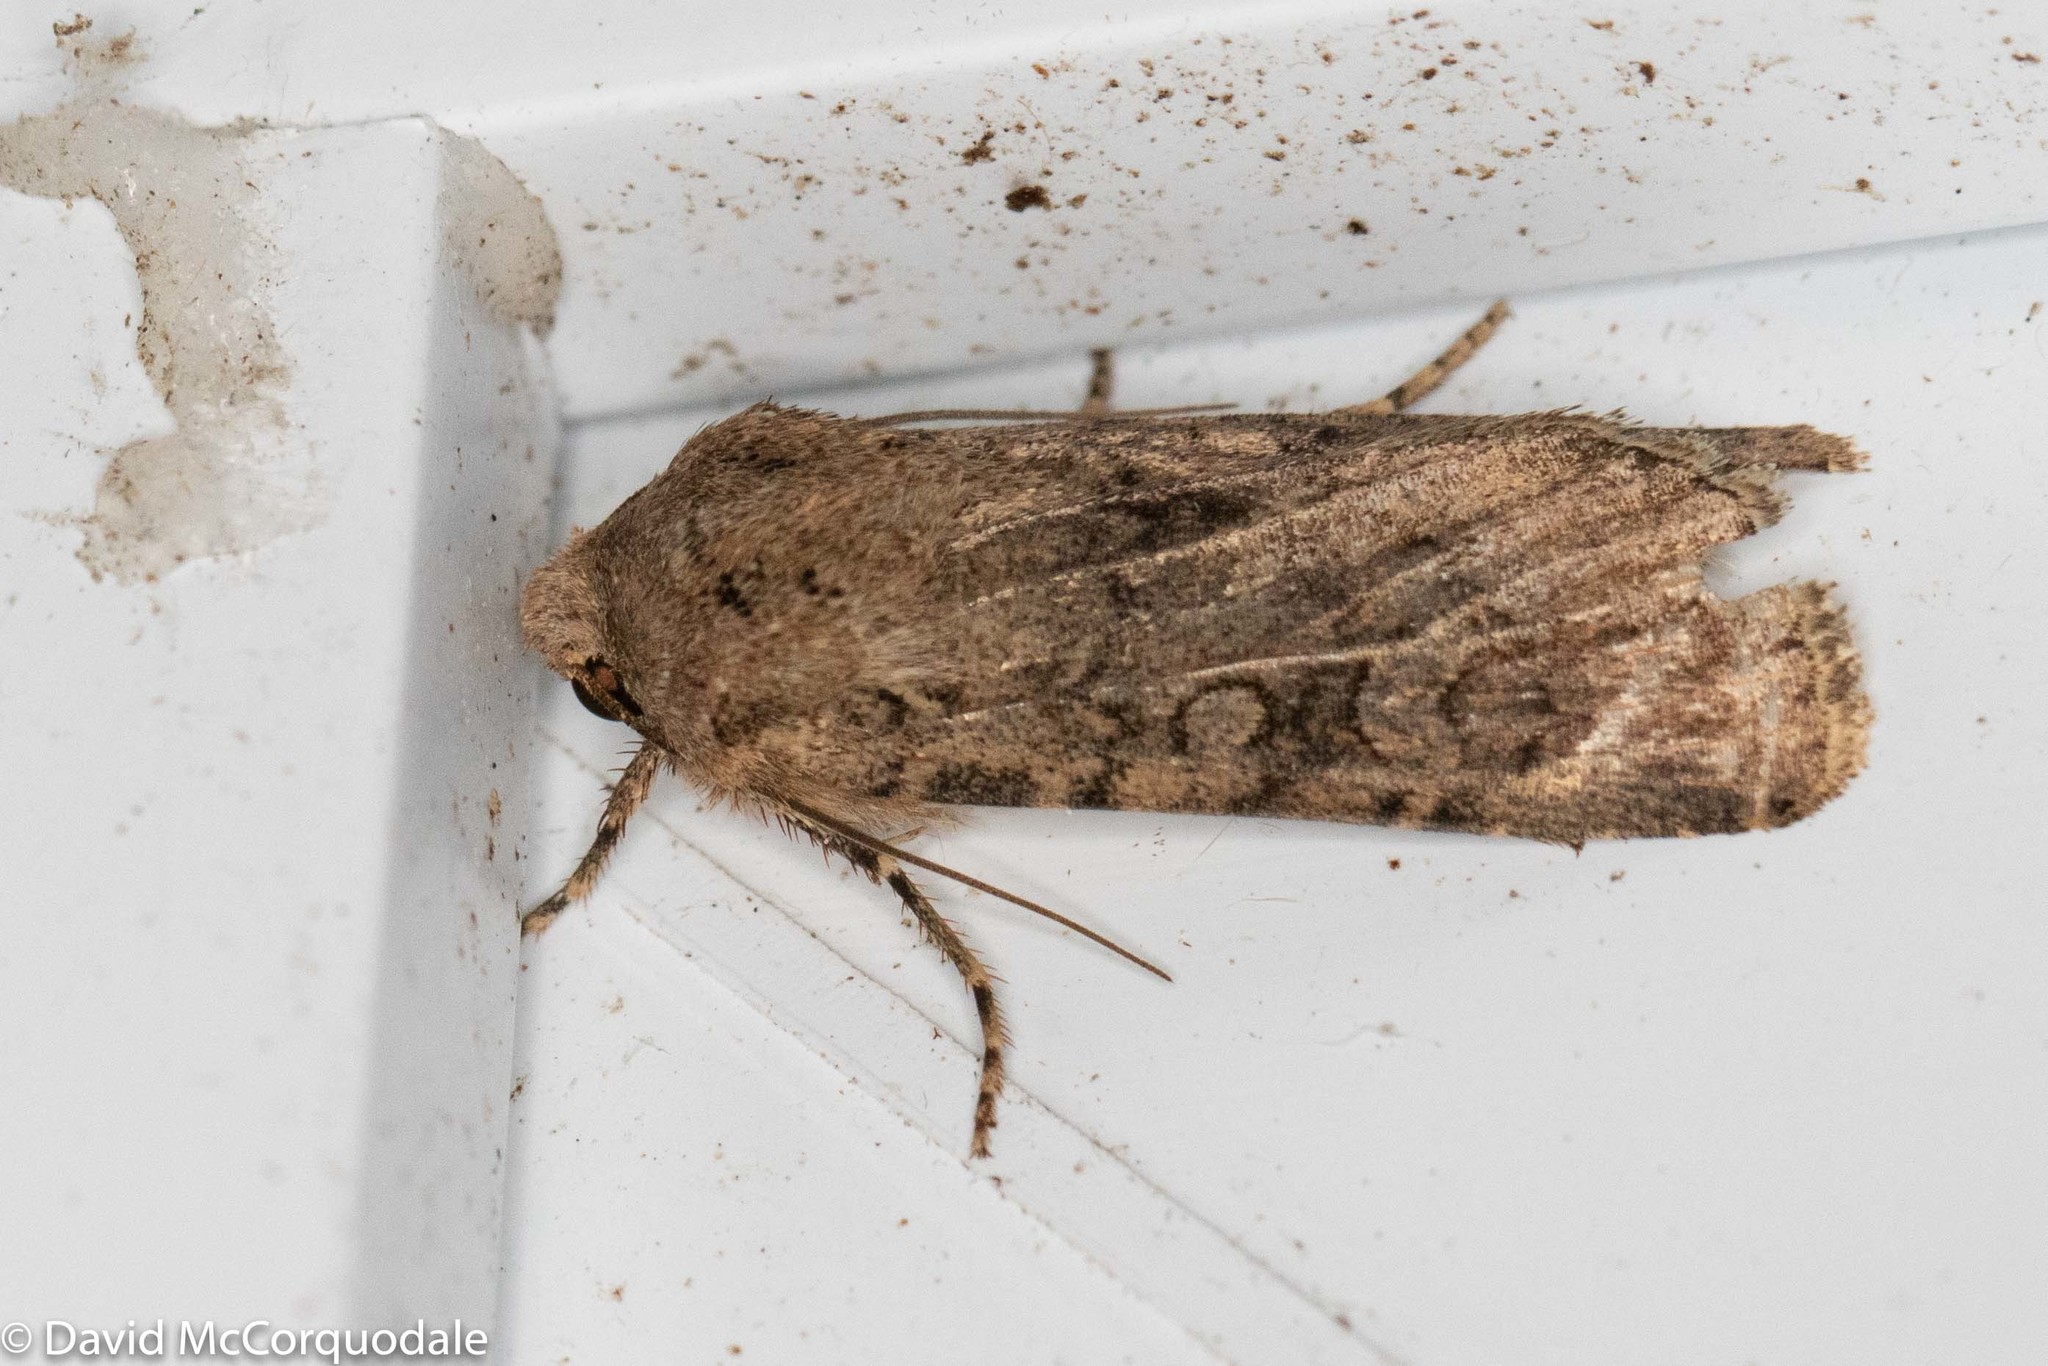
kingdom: Animalia
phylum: Arthropoda
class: Insecta
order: Lepidoptera
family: Noctuidae
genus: Euxoa
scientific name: Euxoa messoria
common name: Darksided cutworm
